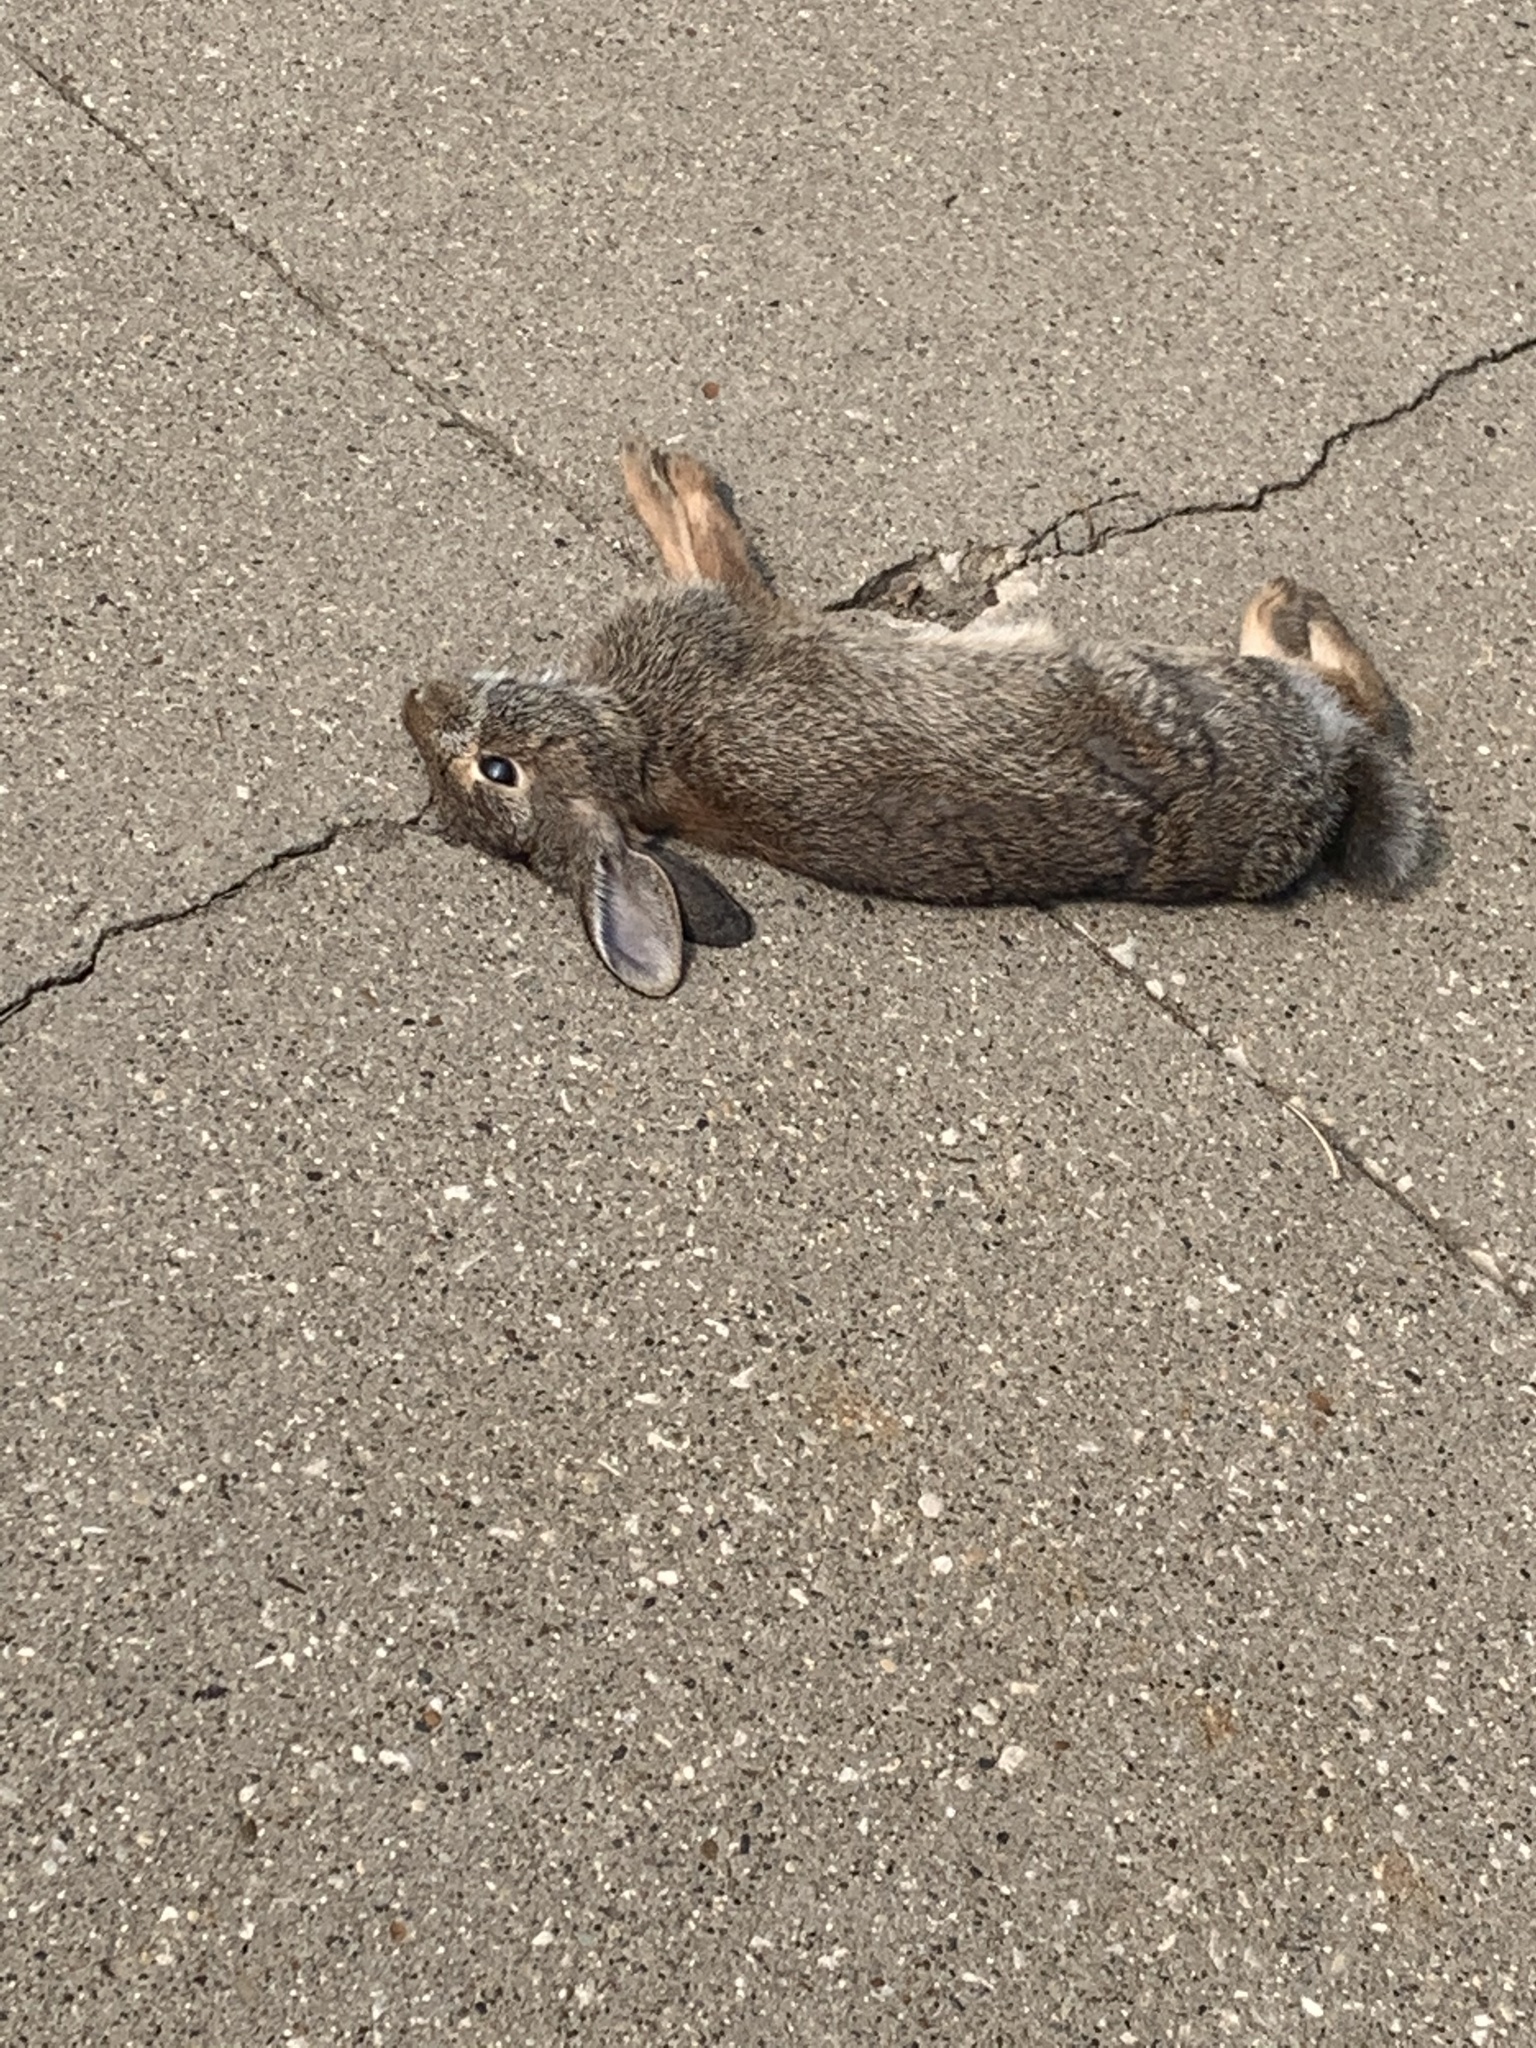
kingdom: Animalia
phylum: Chordata
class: Mammalia
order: Lagomorpha
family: Leporidae
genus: Sylvilagus
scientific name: Sylvilagus floridanus
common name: Eastern cottontail
